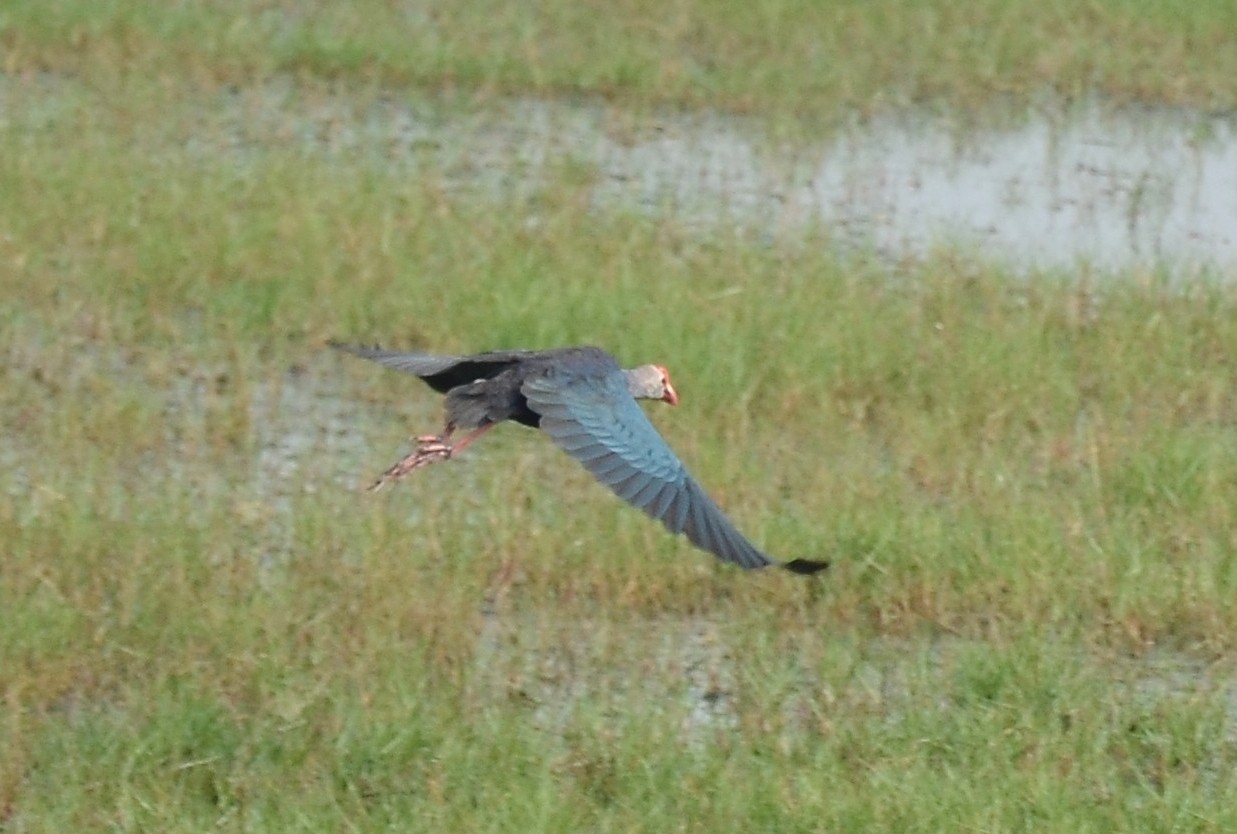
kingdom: Animalia
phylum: Chordata
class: Aves
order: Gruiformes
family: Rallidae
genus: Porphyrio
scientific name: Porphyrio porphyrio
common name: Purple swamphen
